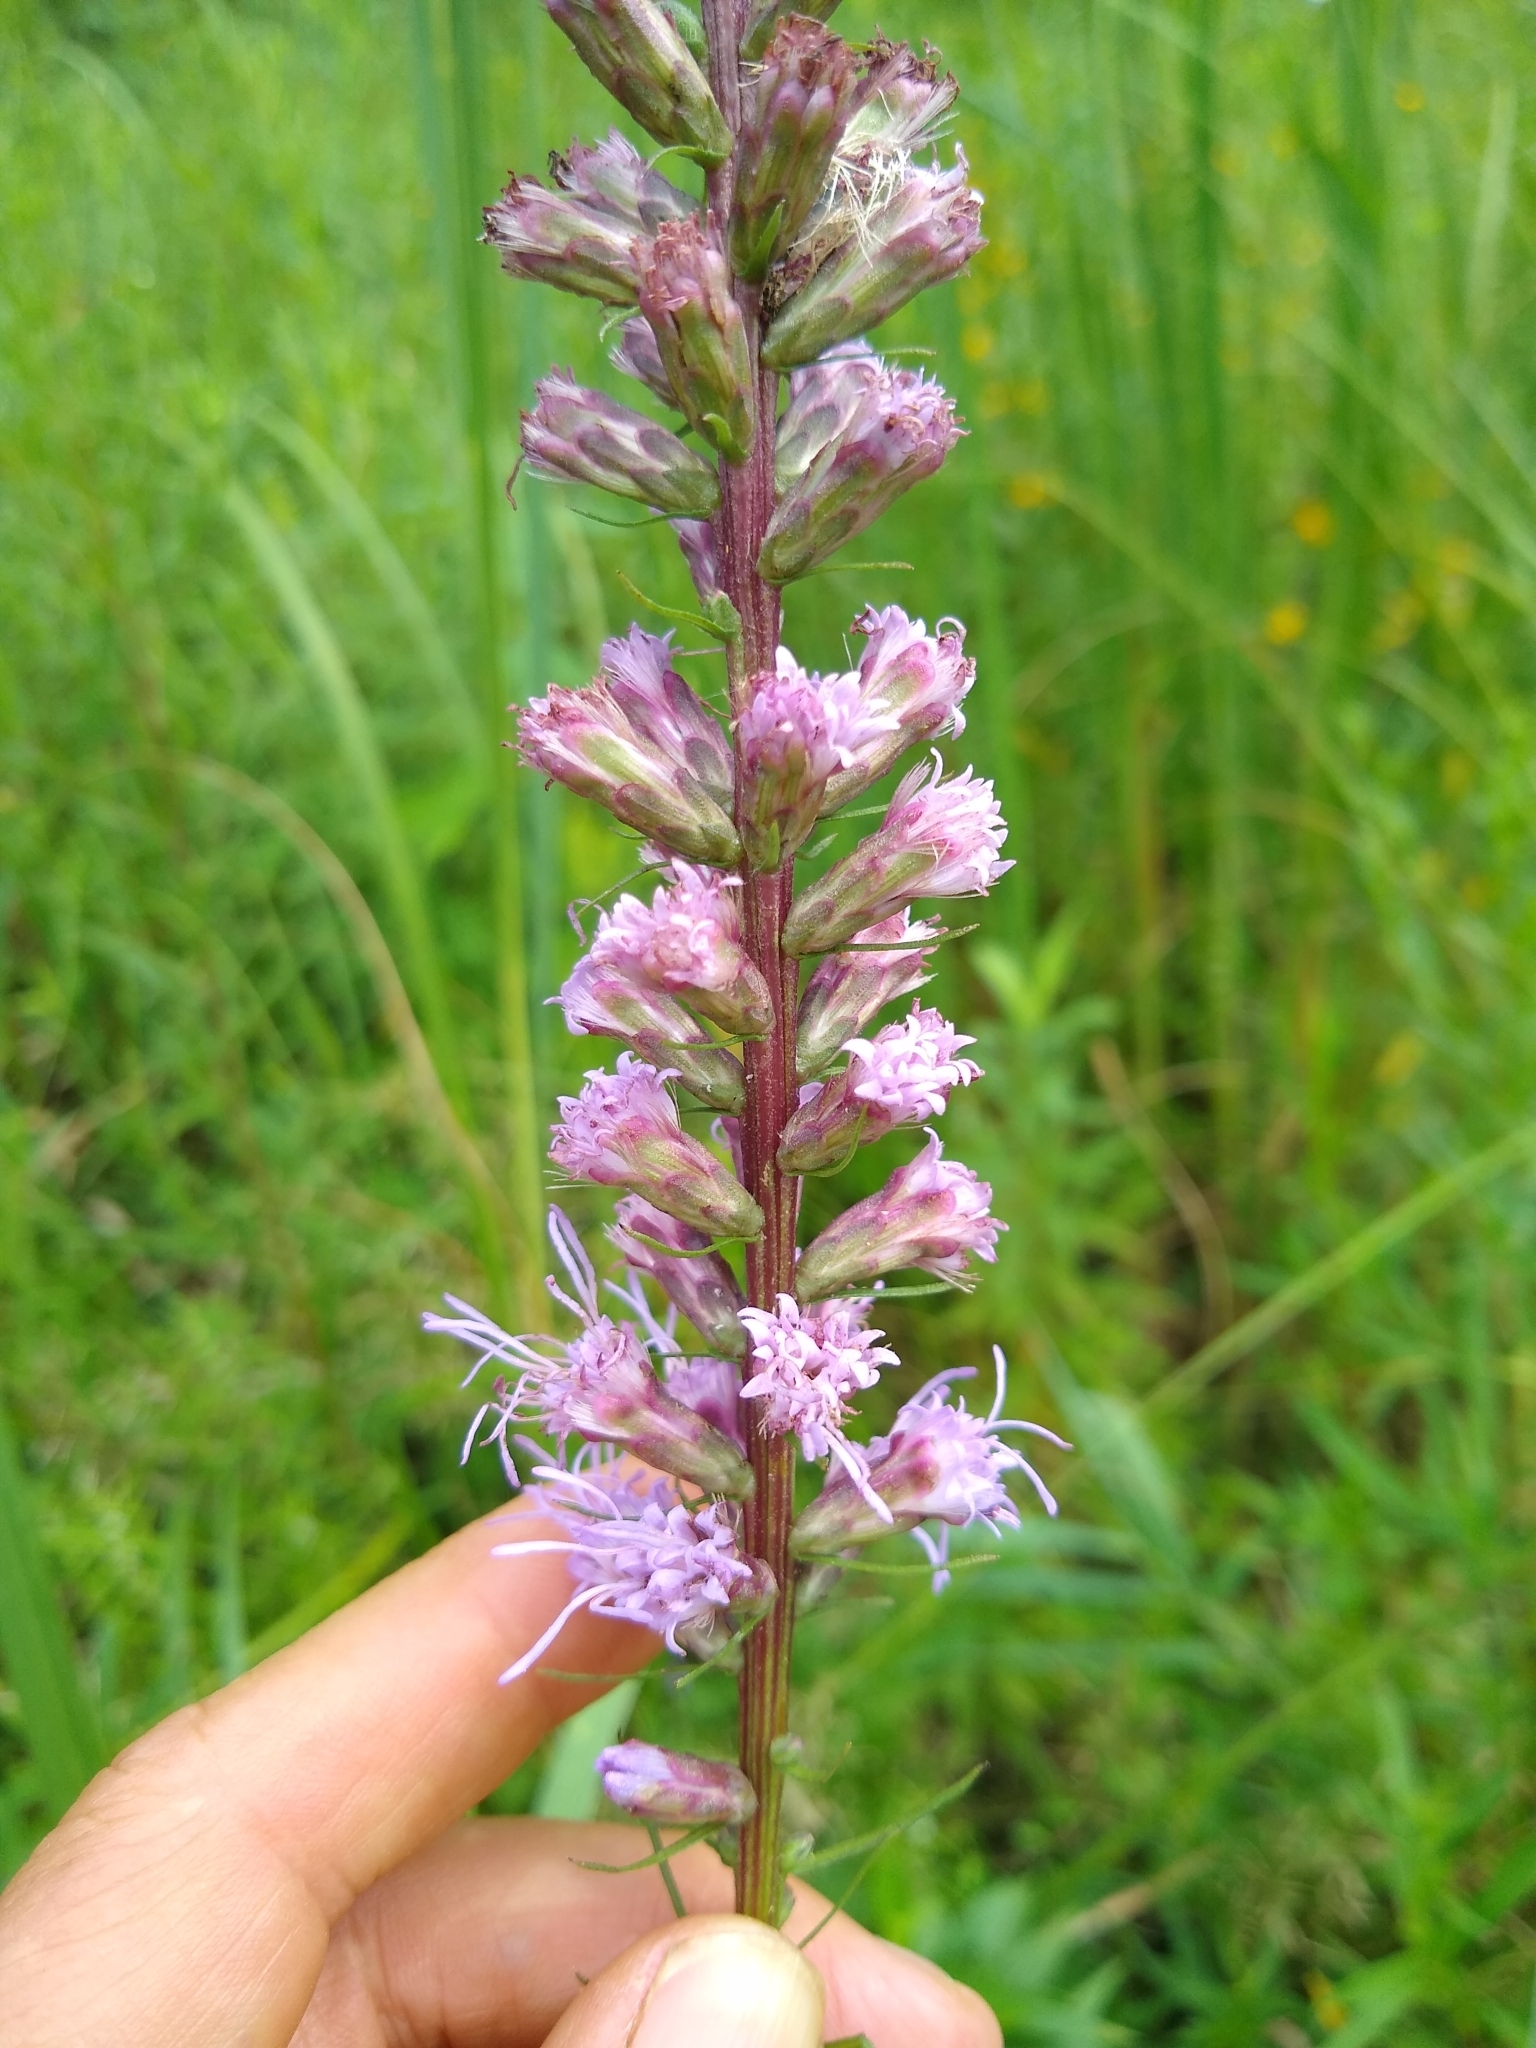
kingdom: Plantae
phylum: Tracheophyta
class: Magnoliopsida
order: Asterales
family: Asteraceae
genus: Liatris
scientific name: Liatris spicata
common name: Florist gayfeather
